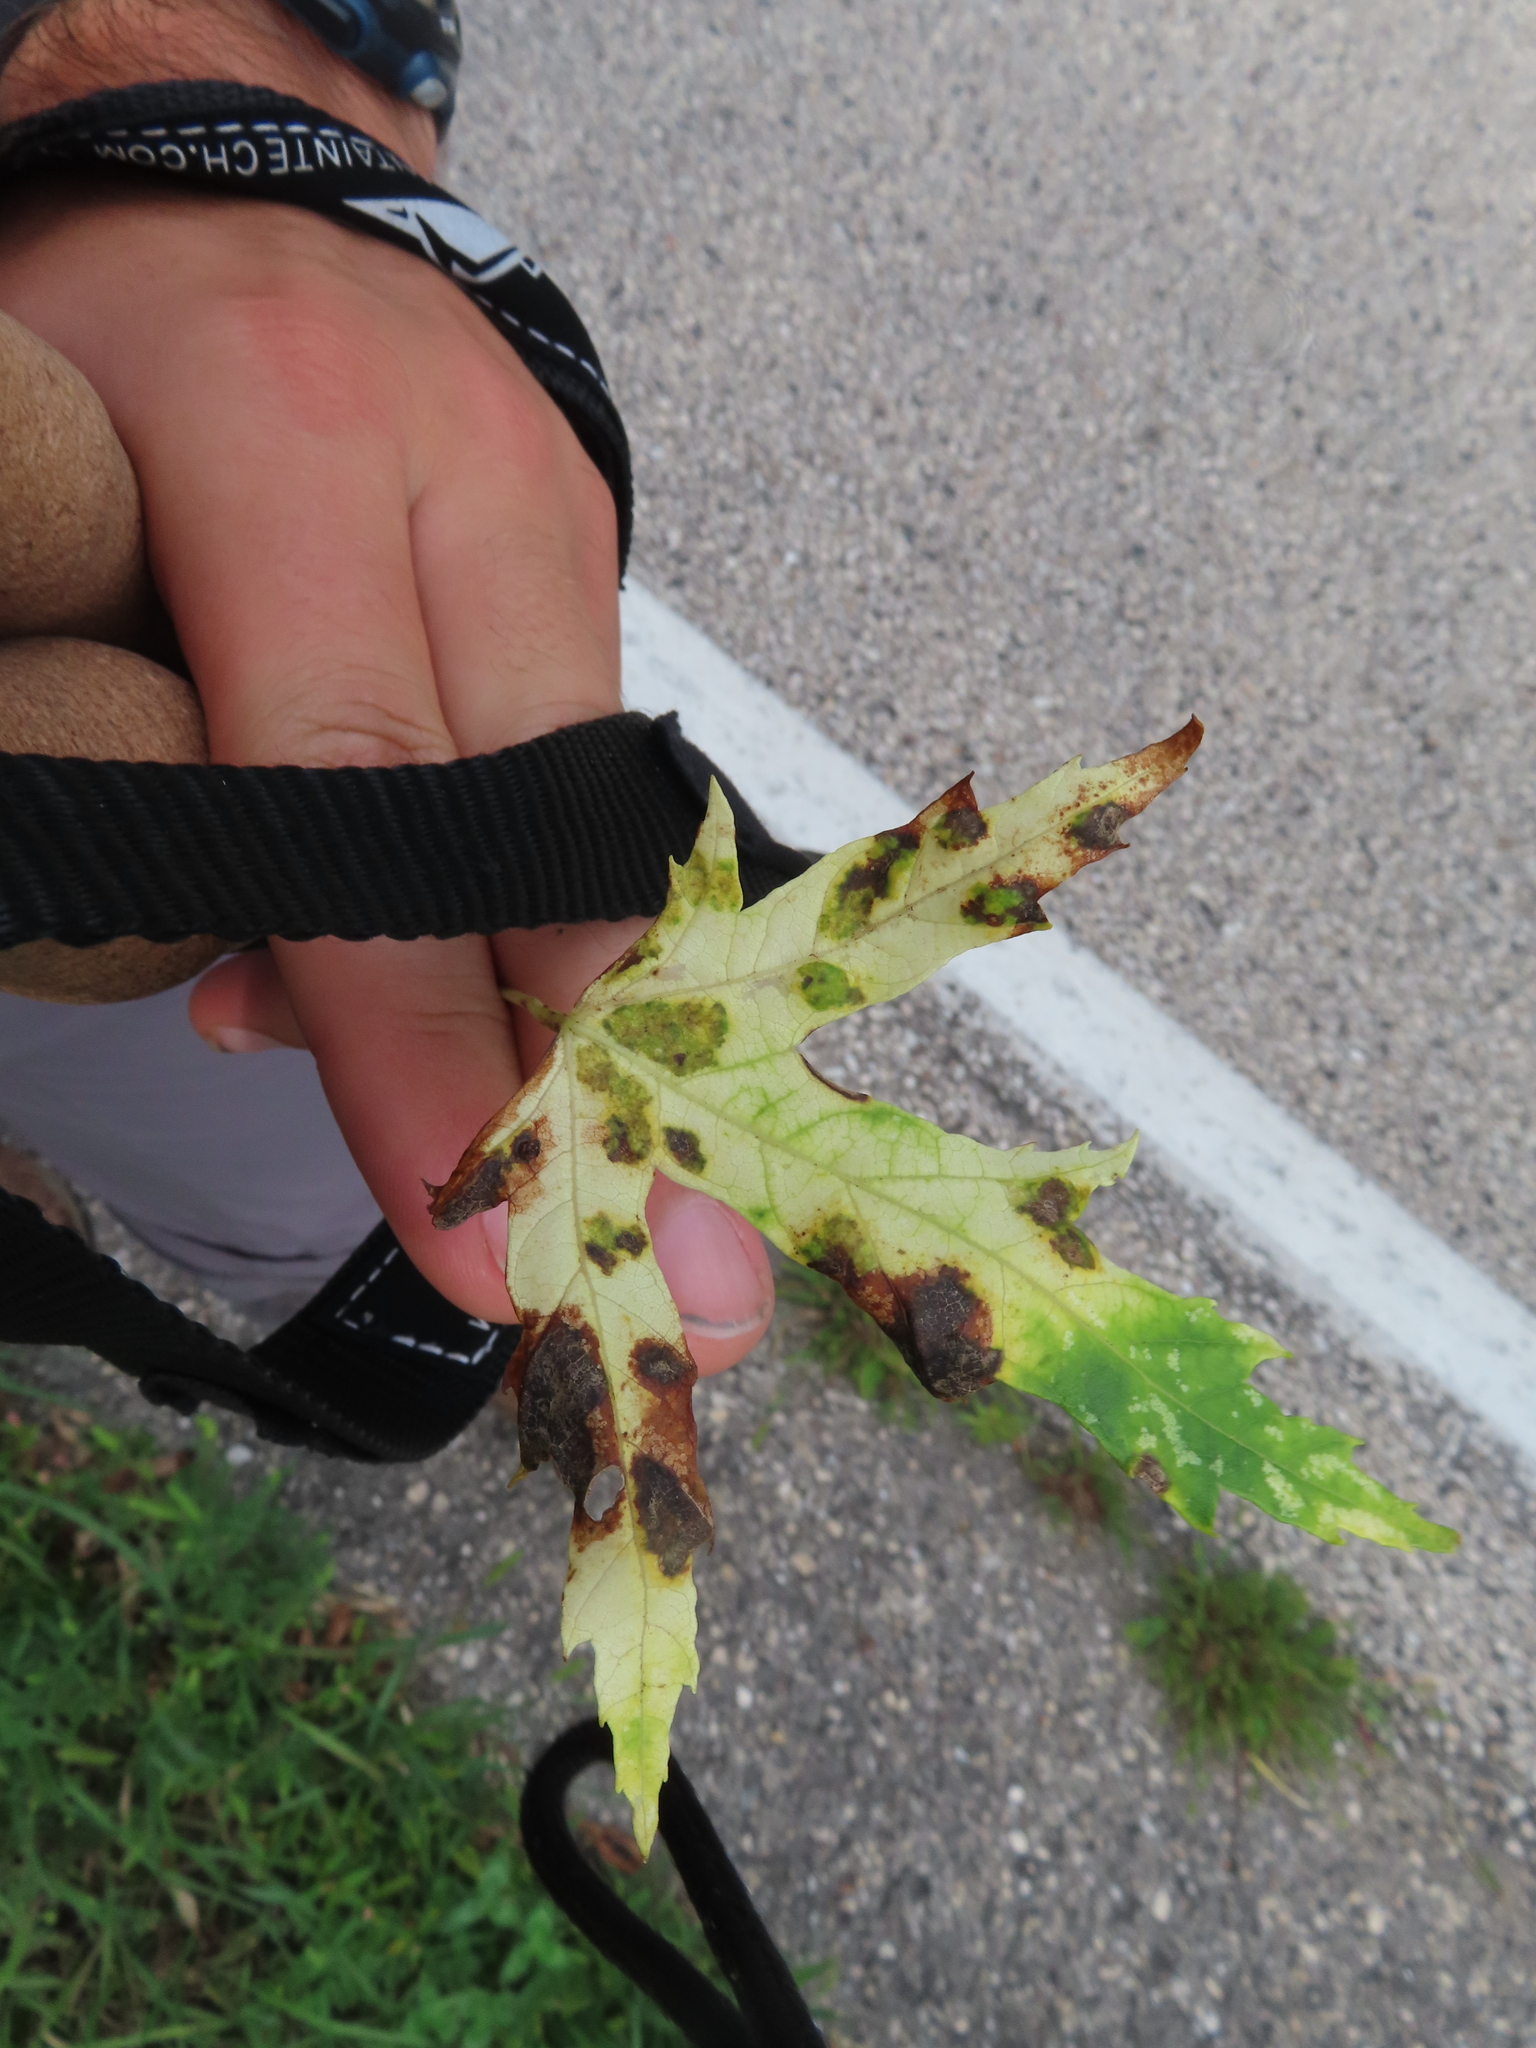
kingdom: Animalia
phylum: Arthropoda
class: Arachnida
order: Trombidiformes
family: Eriophyidae
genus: Eriophyes
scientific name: Eriophyes
